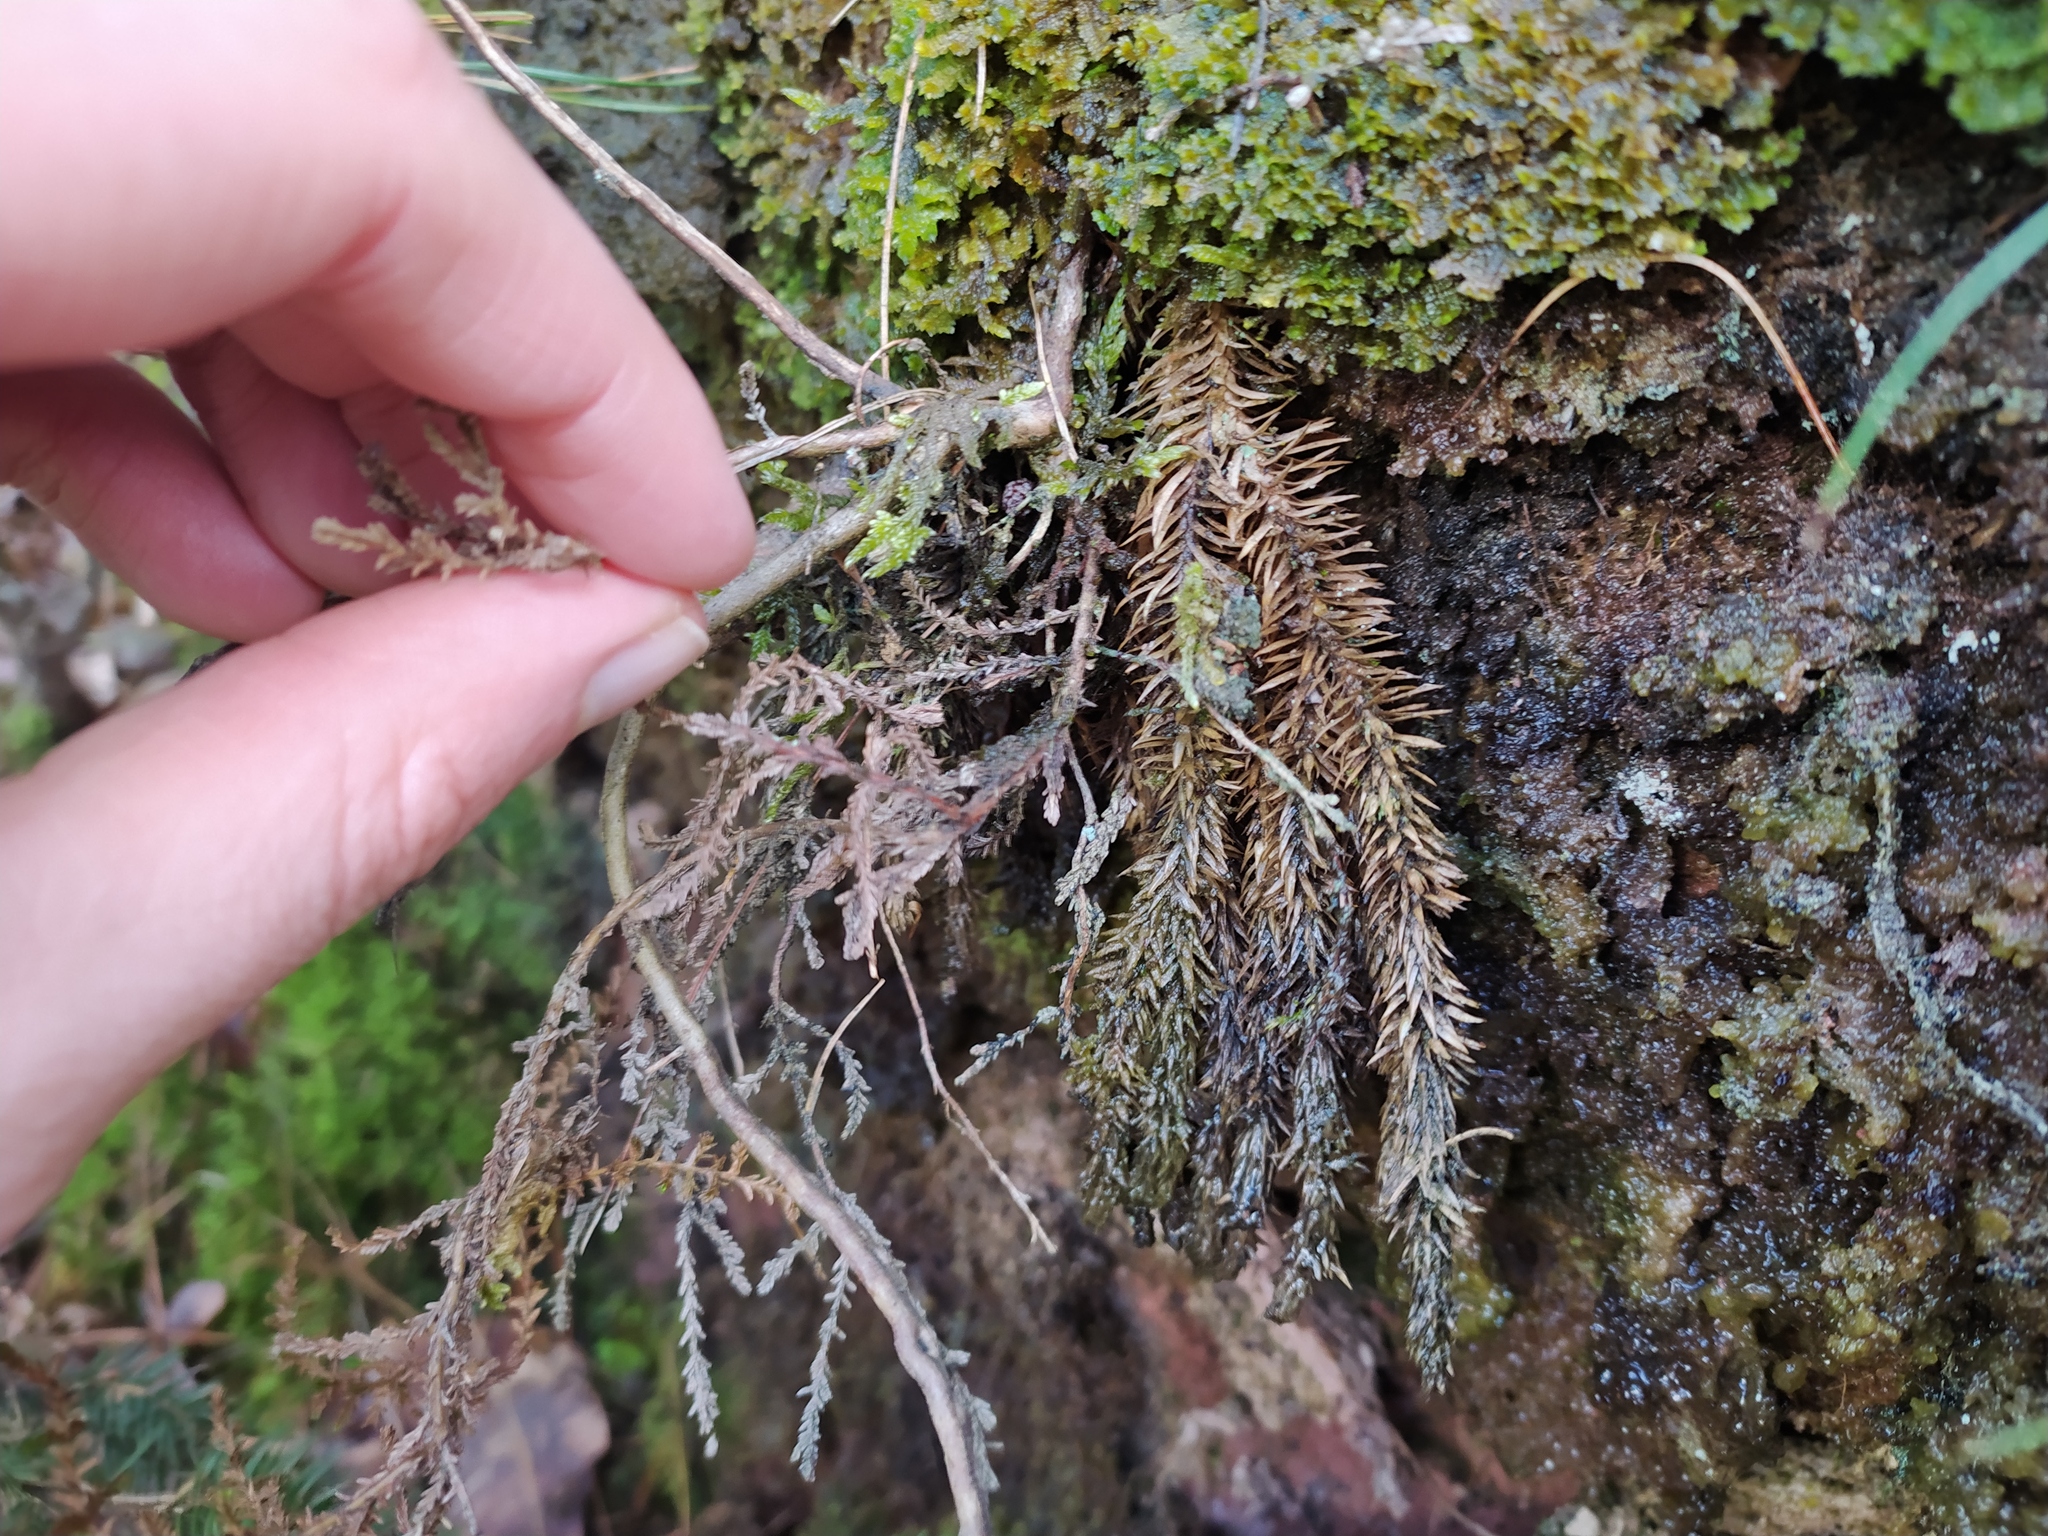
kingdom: Plantae
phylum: Tracheophyta
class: Lycopodiopsida
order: Lycopodiales
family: Lycopodiaceae
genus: Huperzia
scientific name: Huperzia selago
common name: Northern firmoss
